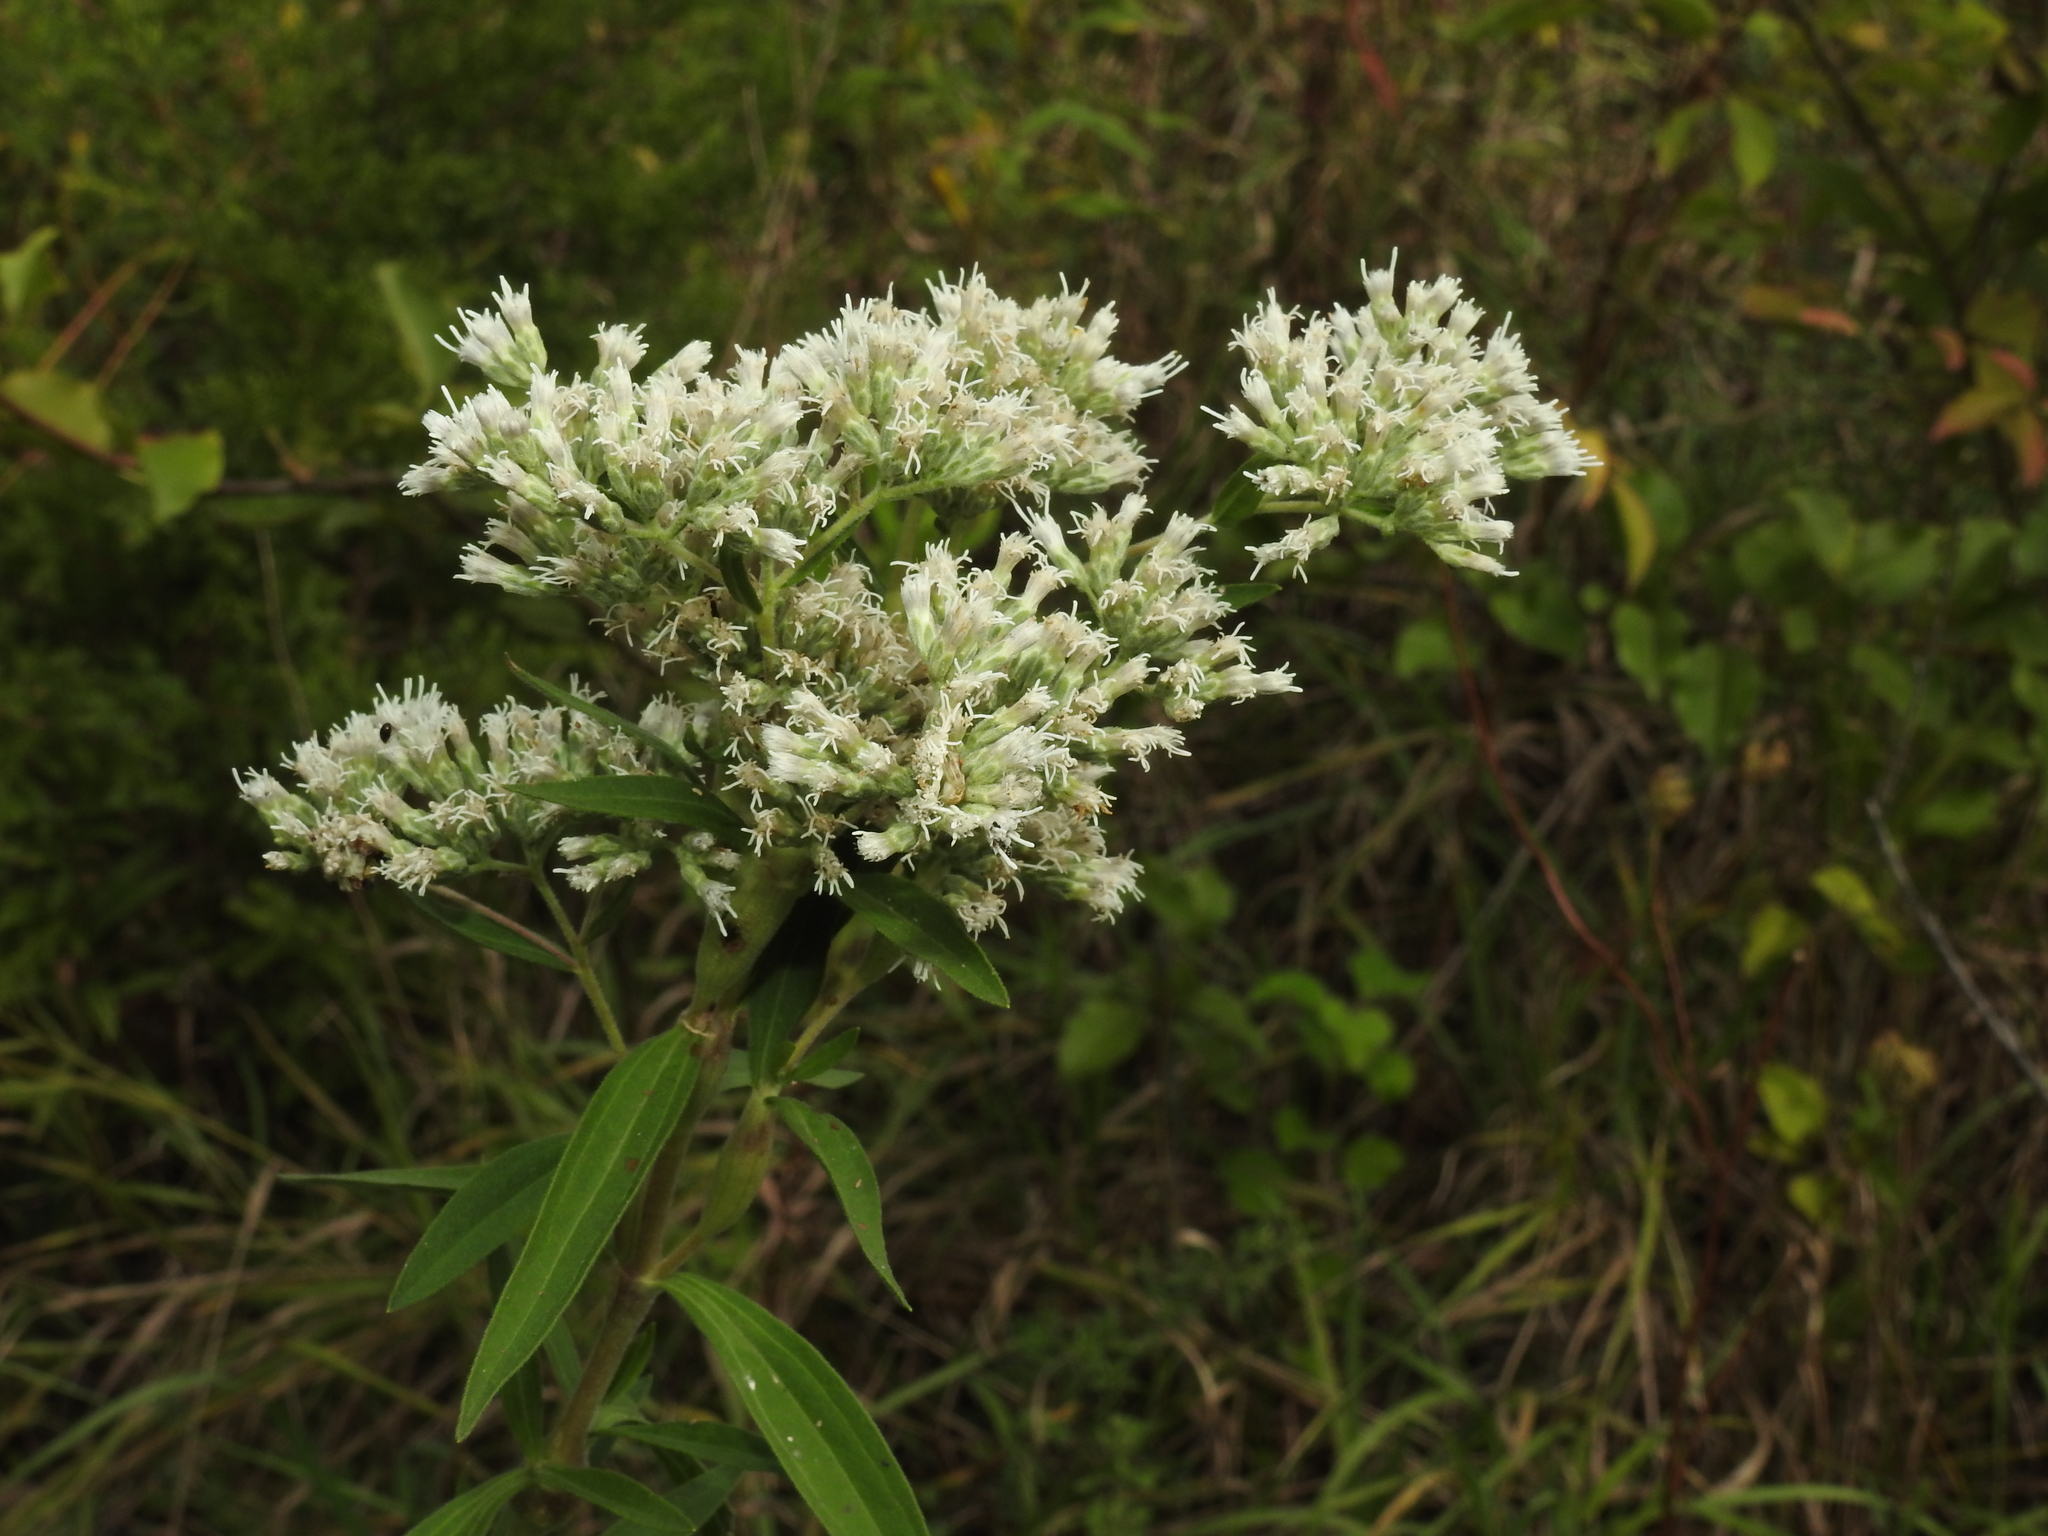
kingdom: Plantae
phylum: Tracheophyta
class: Magnoliopsida
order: Asterales
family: Asteraceae
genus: Eupatorium
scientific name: Eupatorium altissimum
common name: Tall thoroughwort
